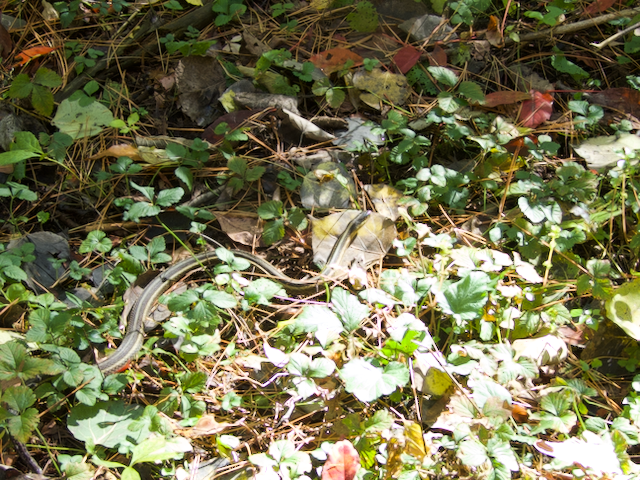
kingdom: Animalia
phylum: Chordata
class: Squamata
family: Colubridae
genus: Thamnophis
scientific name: Thamnophis sirtalis
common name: Common garter snake
